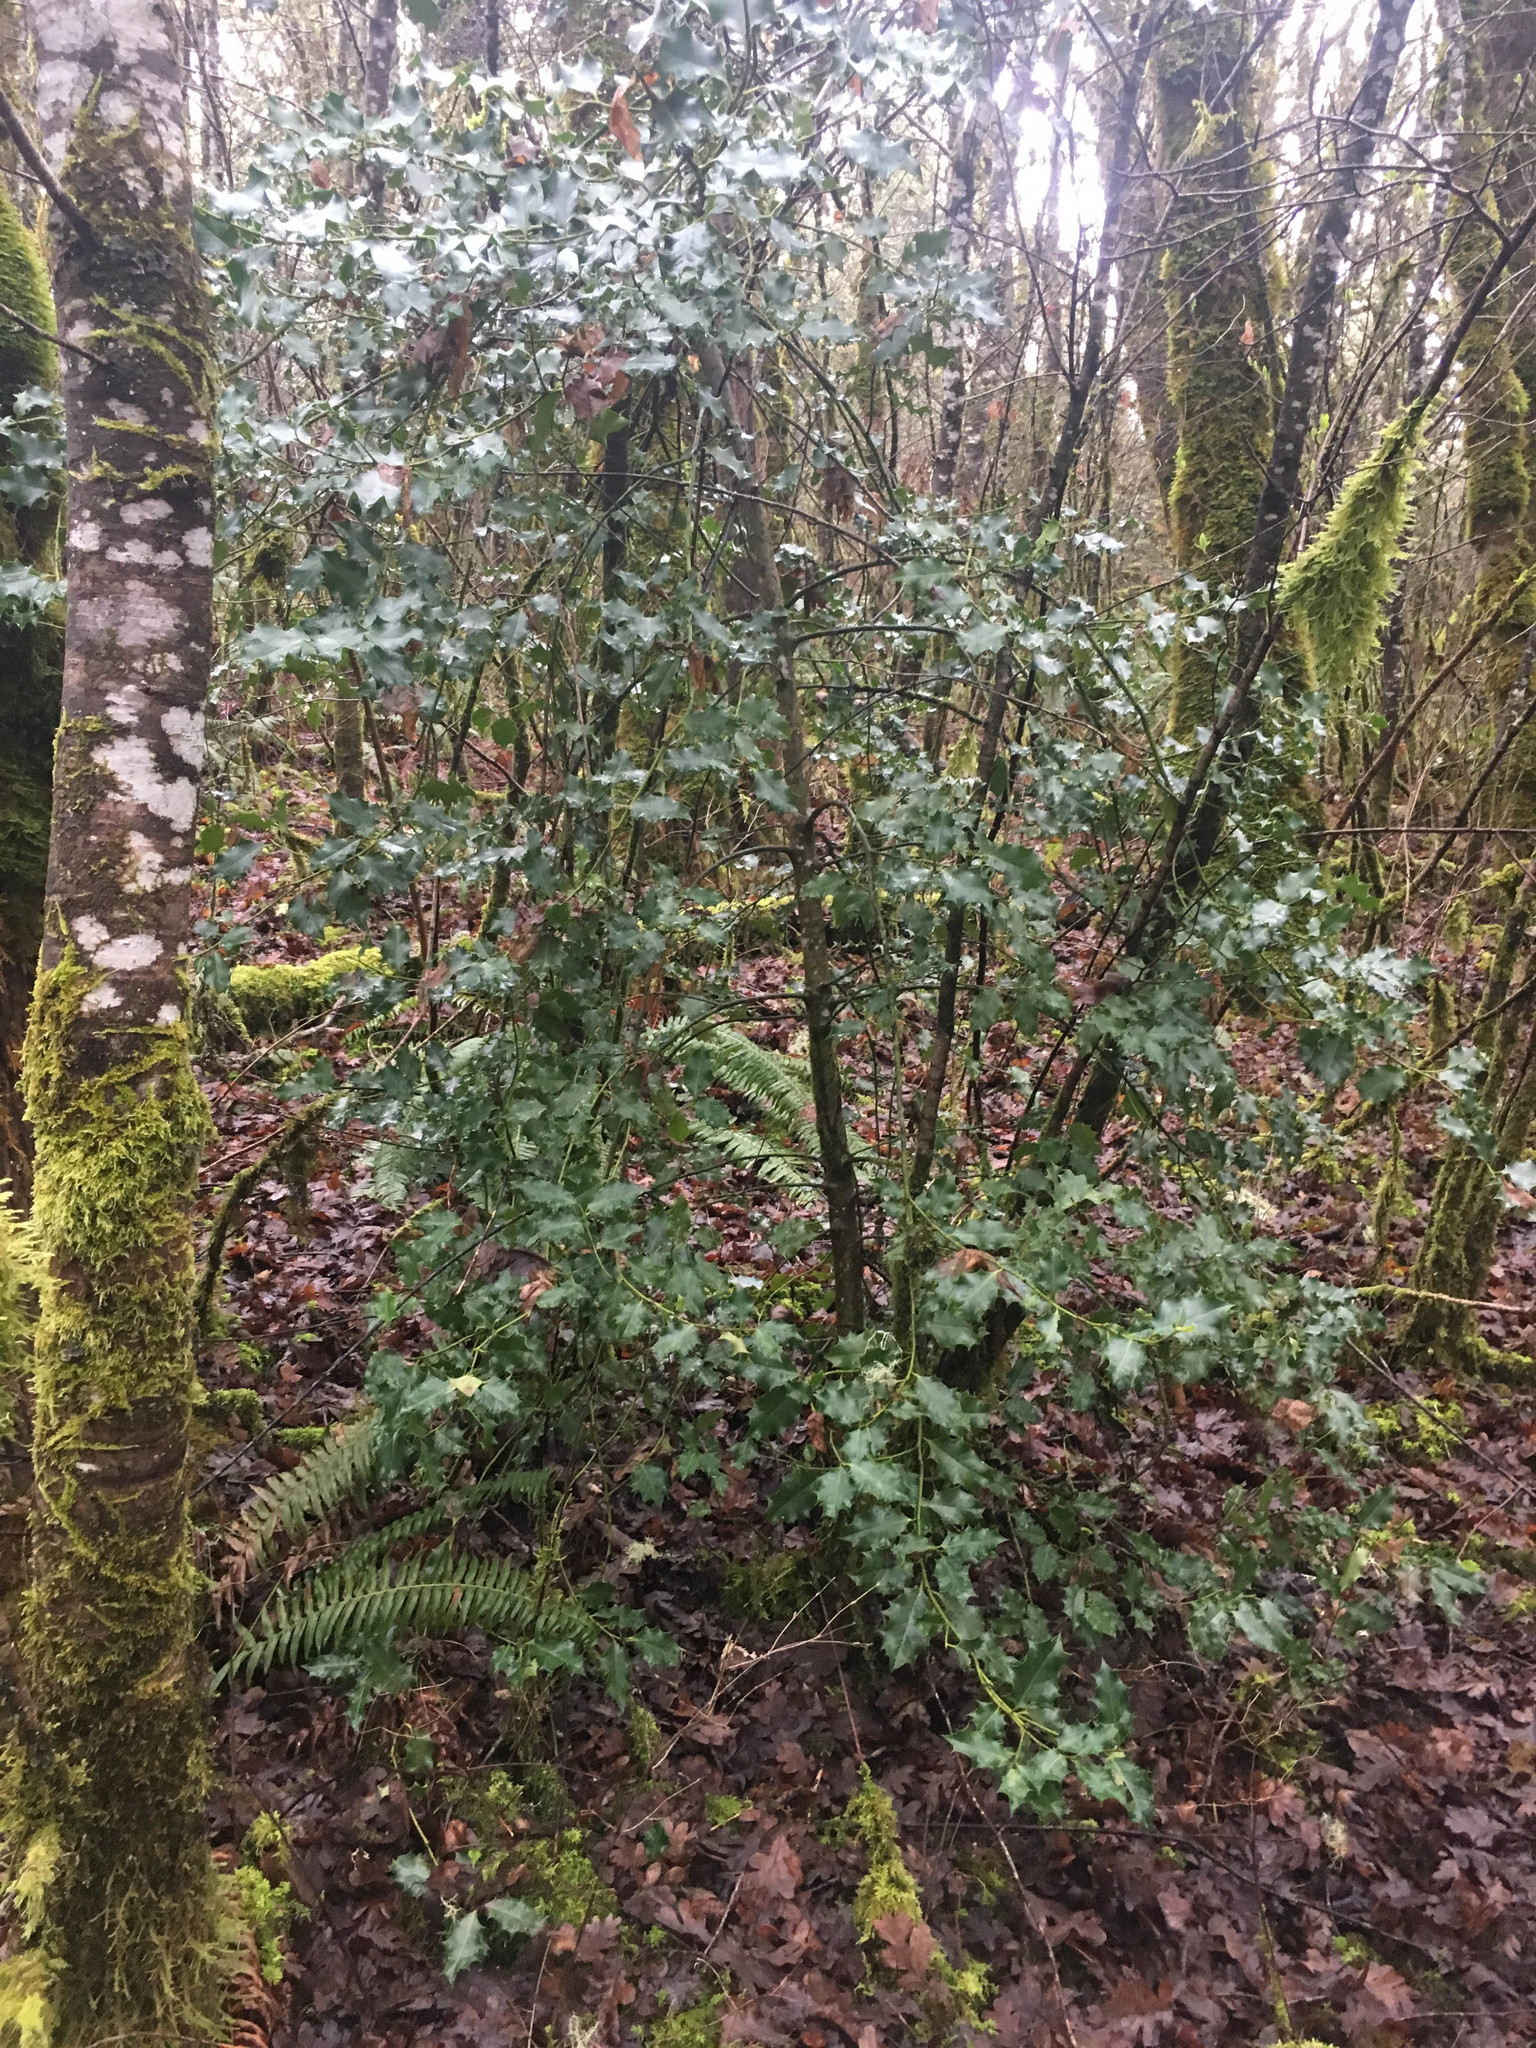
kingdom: Plantae
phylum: Tracheophyta
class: Magnoliopsida
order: Aquifoliales
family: Aquifoliaceae
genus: Ilex
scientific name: Ilex aquifolium
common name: English holly
